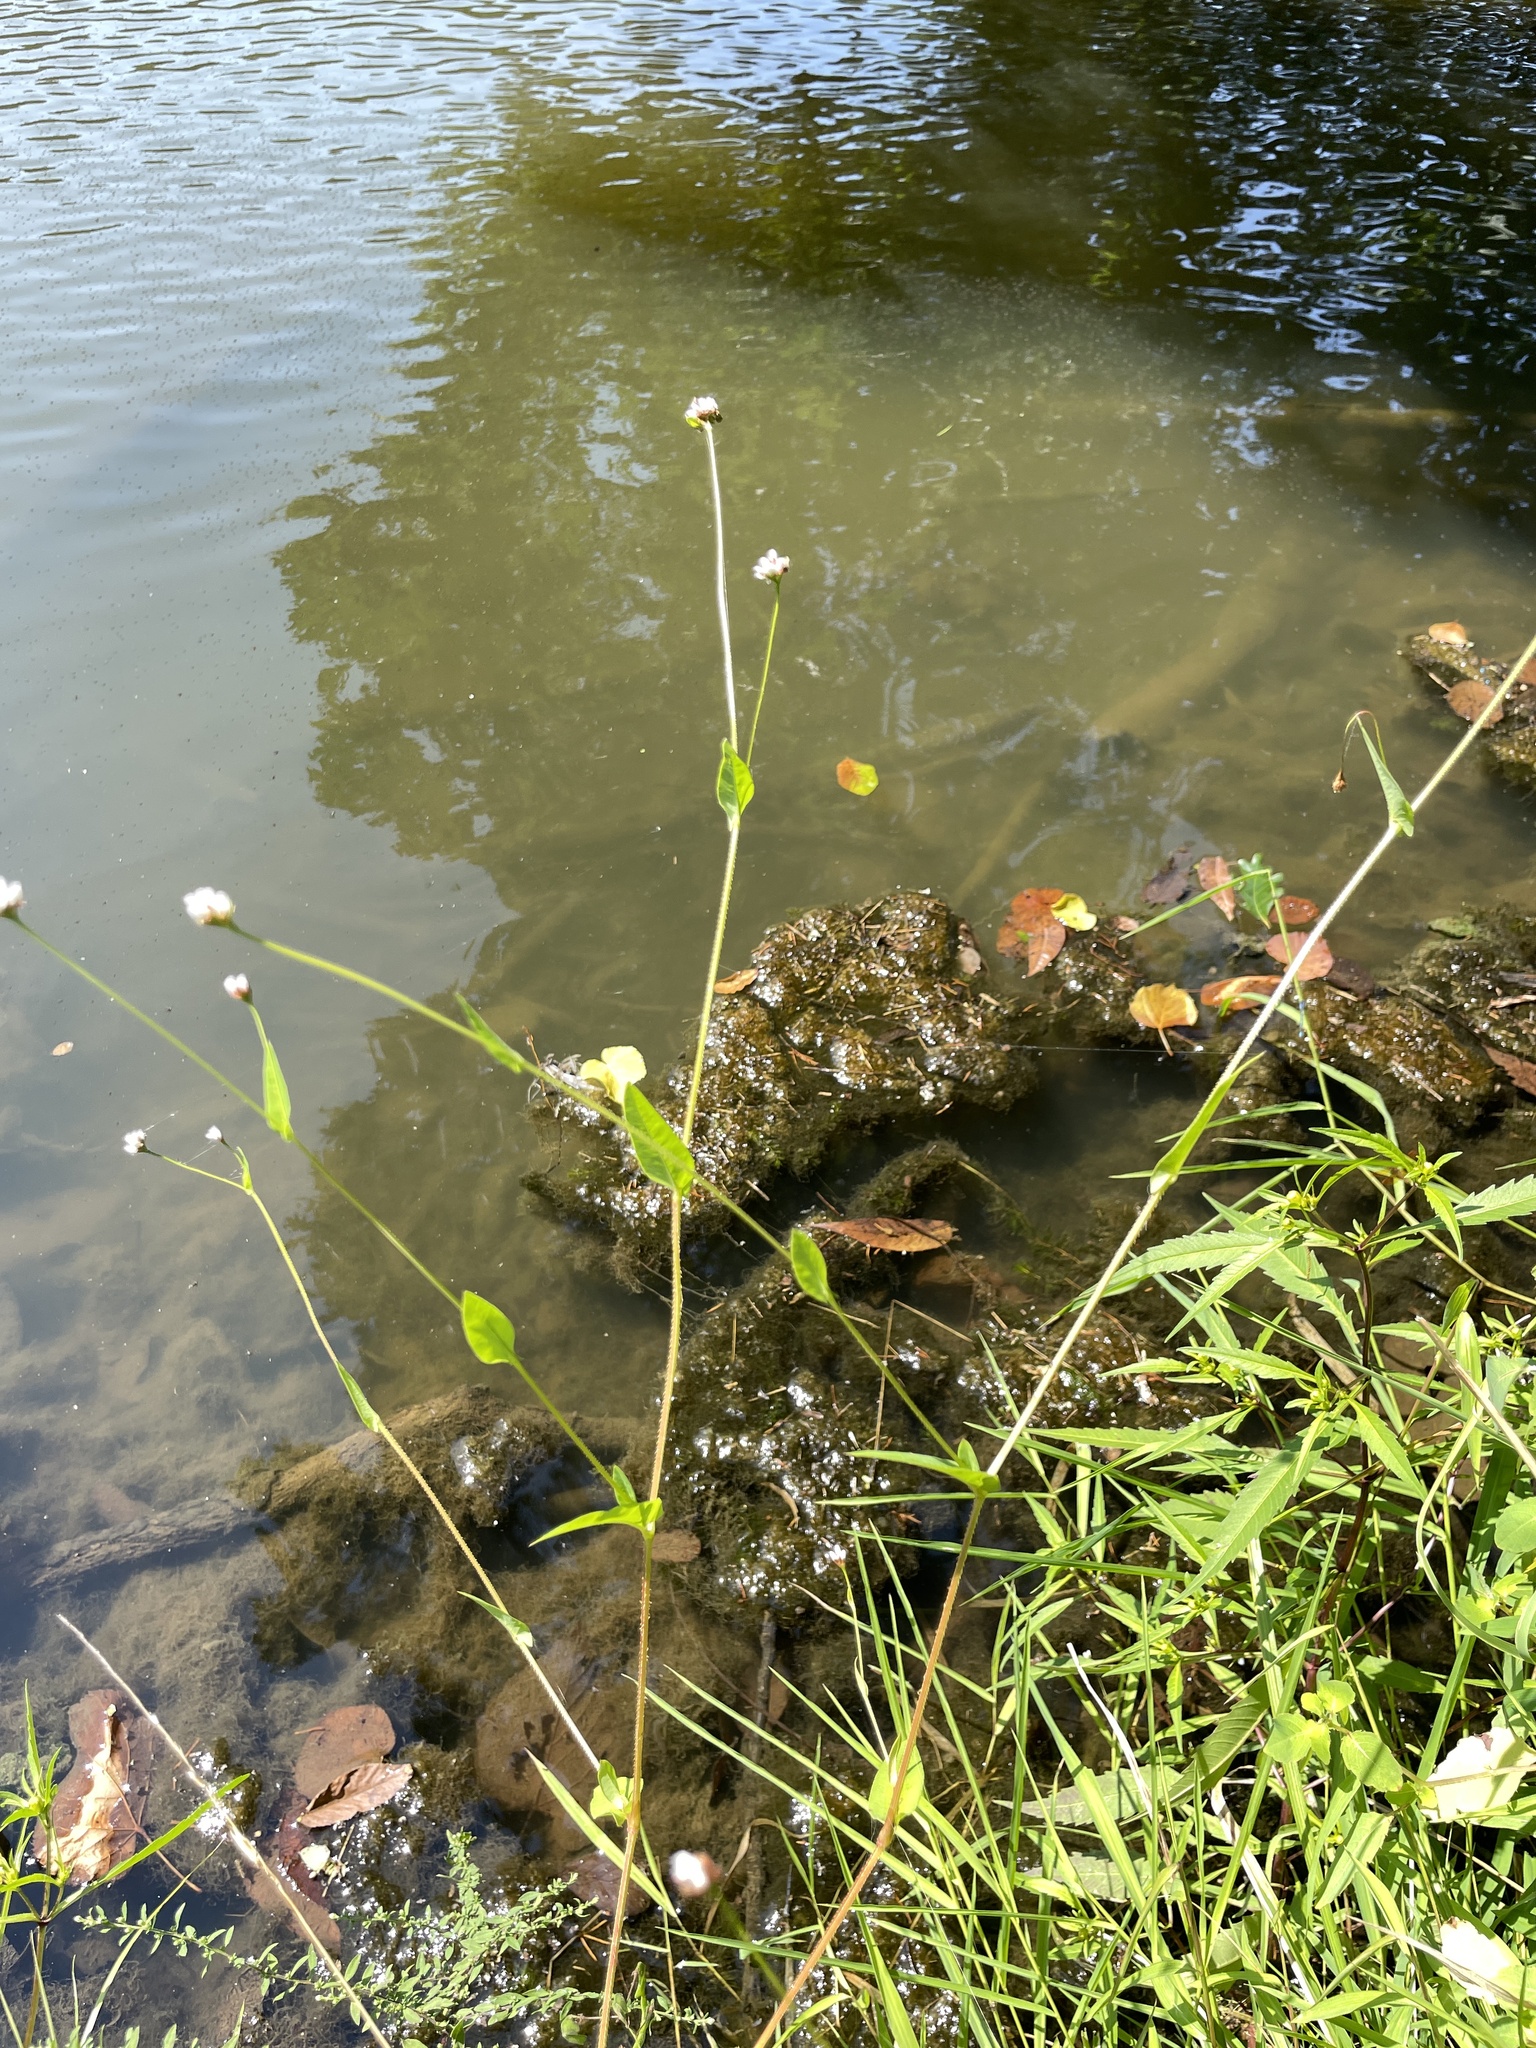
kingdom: Plantae
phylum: Tracheophyta
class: Magnoliopsida
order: Caryophyllales
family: Polygonaceae
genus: Persicaria
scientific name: Persicaria sagittata
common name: American tearthumb
